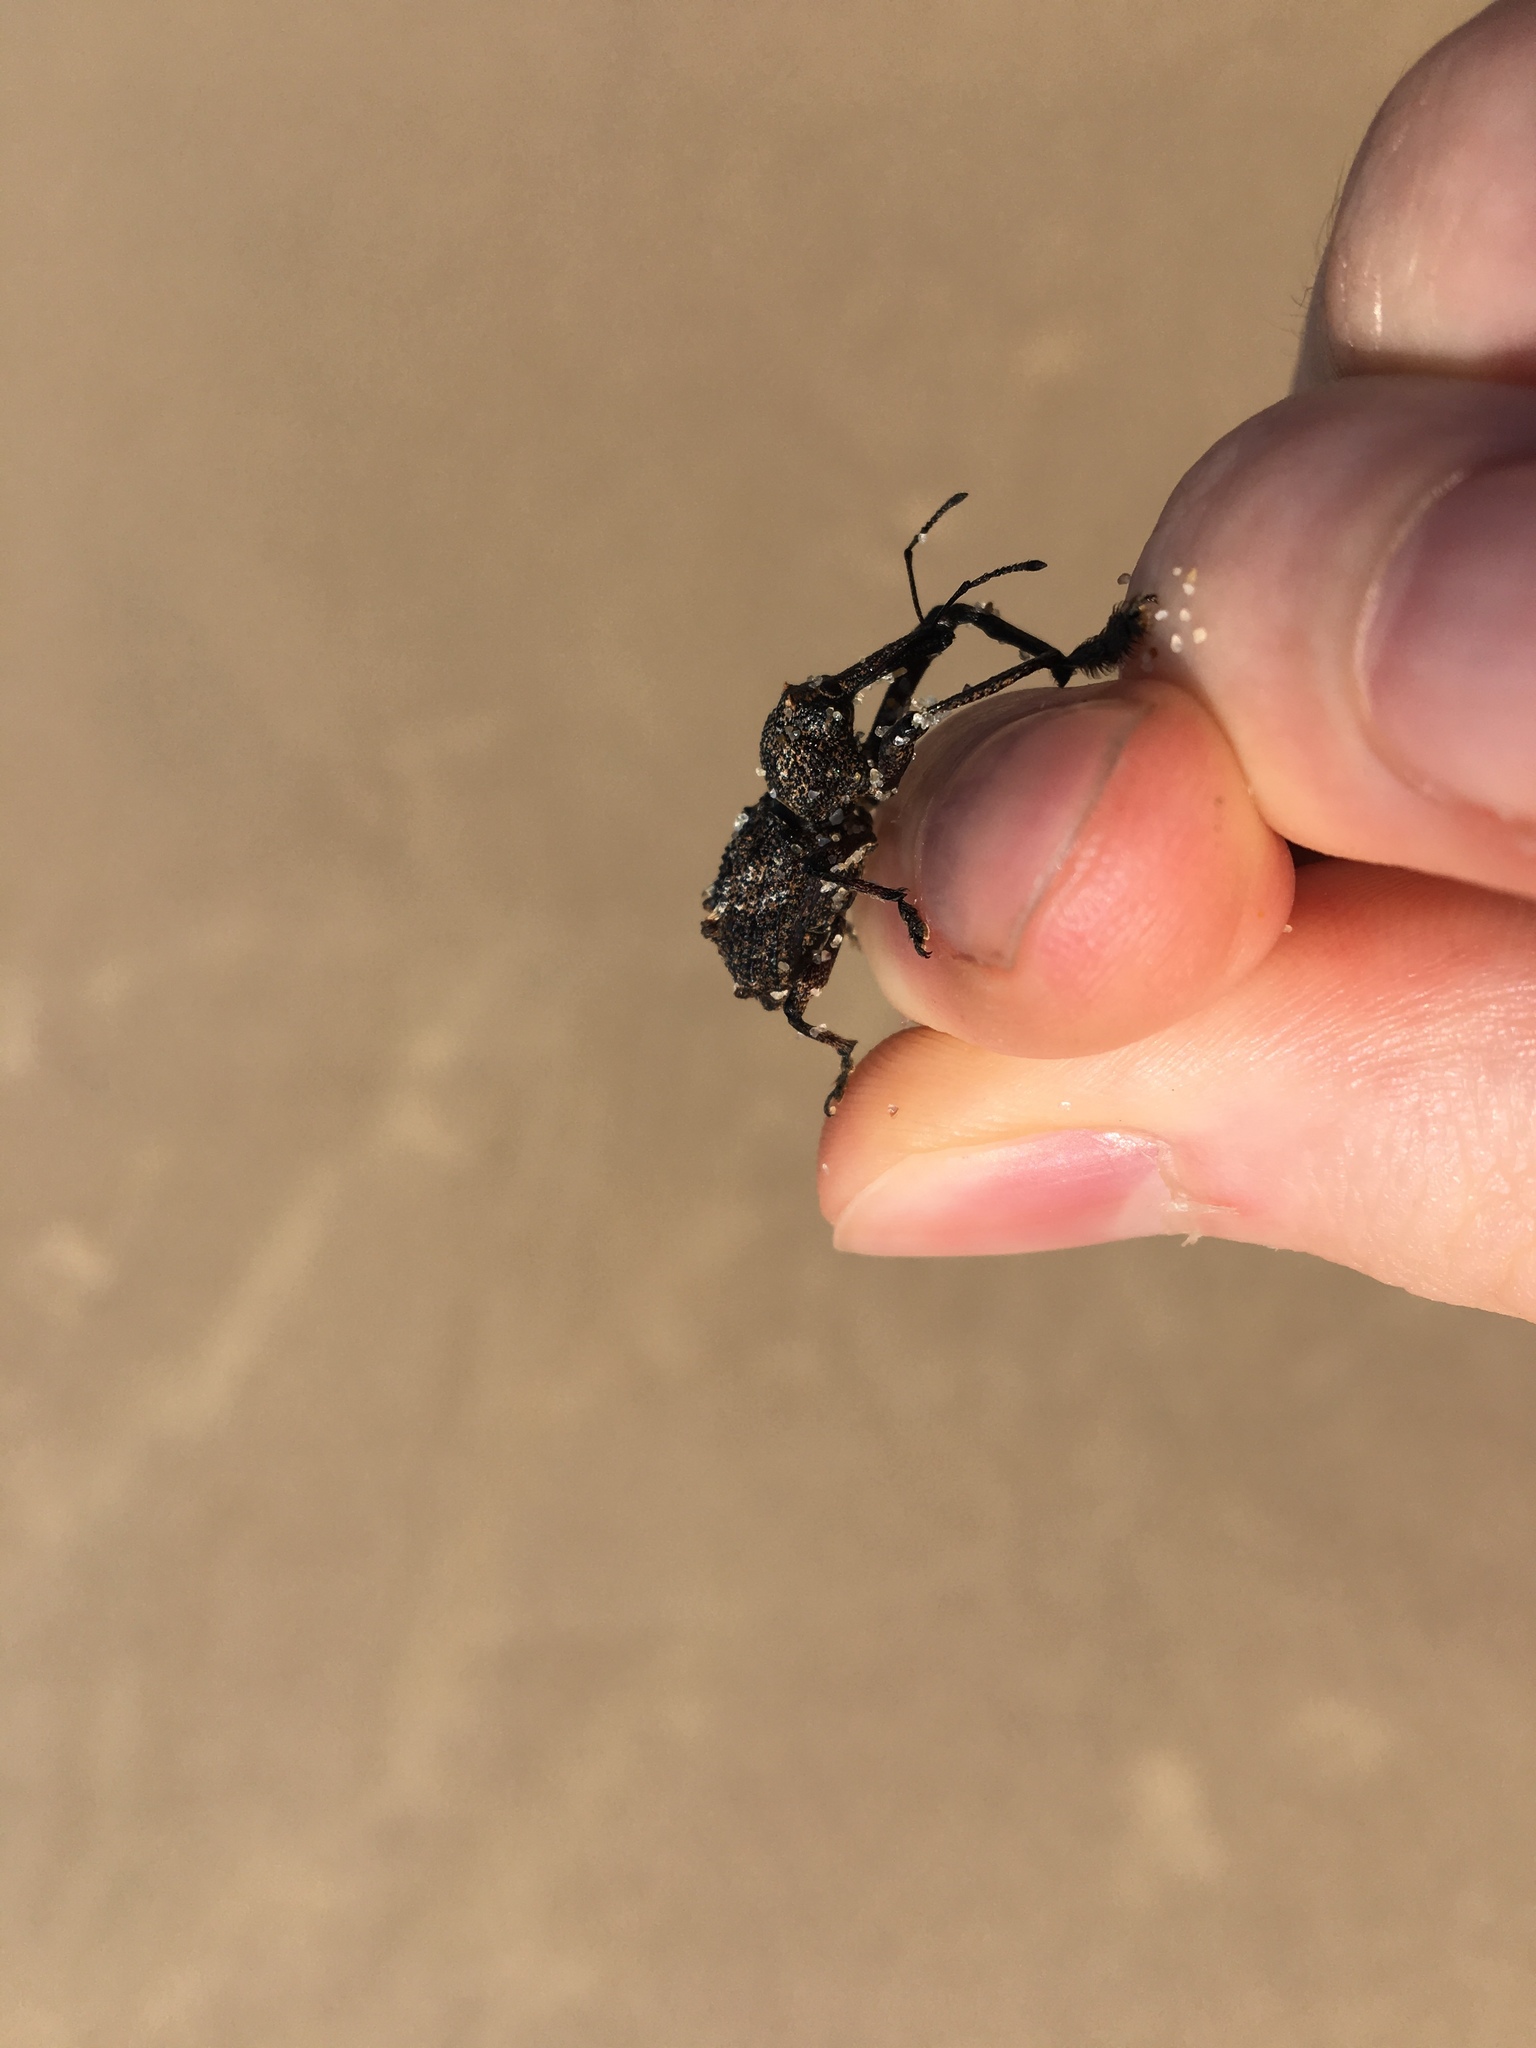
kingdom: Animalia
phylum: Arthropoda
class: Insecta
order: Coleoptera
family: Curculionidae
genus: Orthorhinus
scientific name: Orthorhinus cylindrirostris
